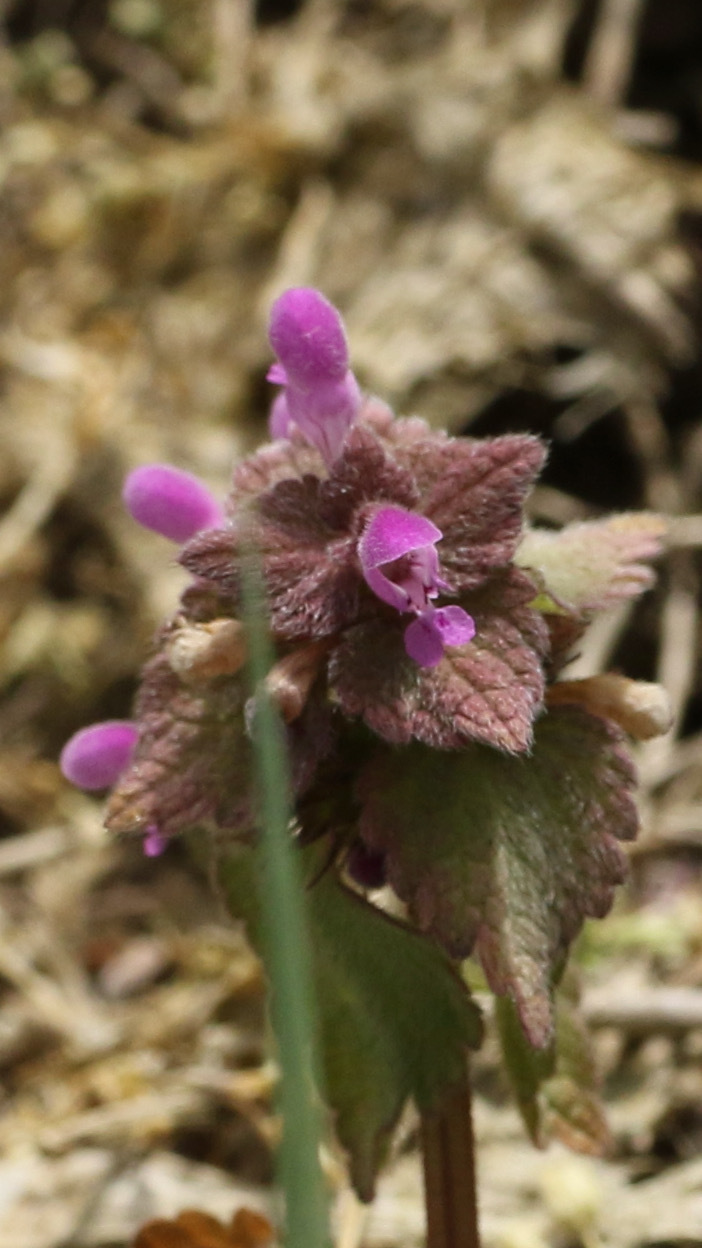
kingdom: Plantae
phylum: Tracheophyta
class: Magnoliopsida
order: Lamiales
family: Lamiaceae
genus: Lamium
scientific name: Lamium purpureum
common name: Red dead-nettle
